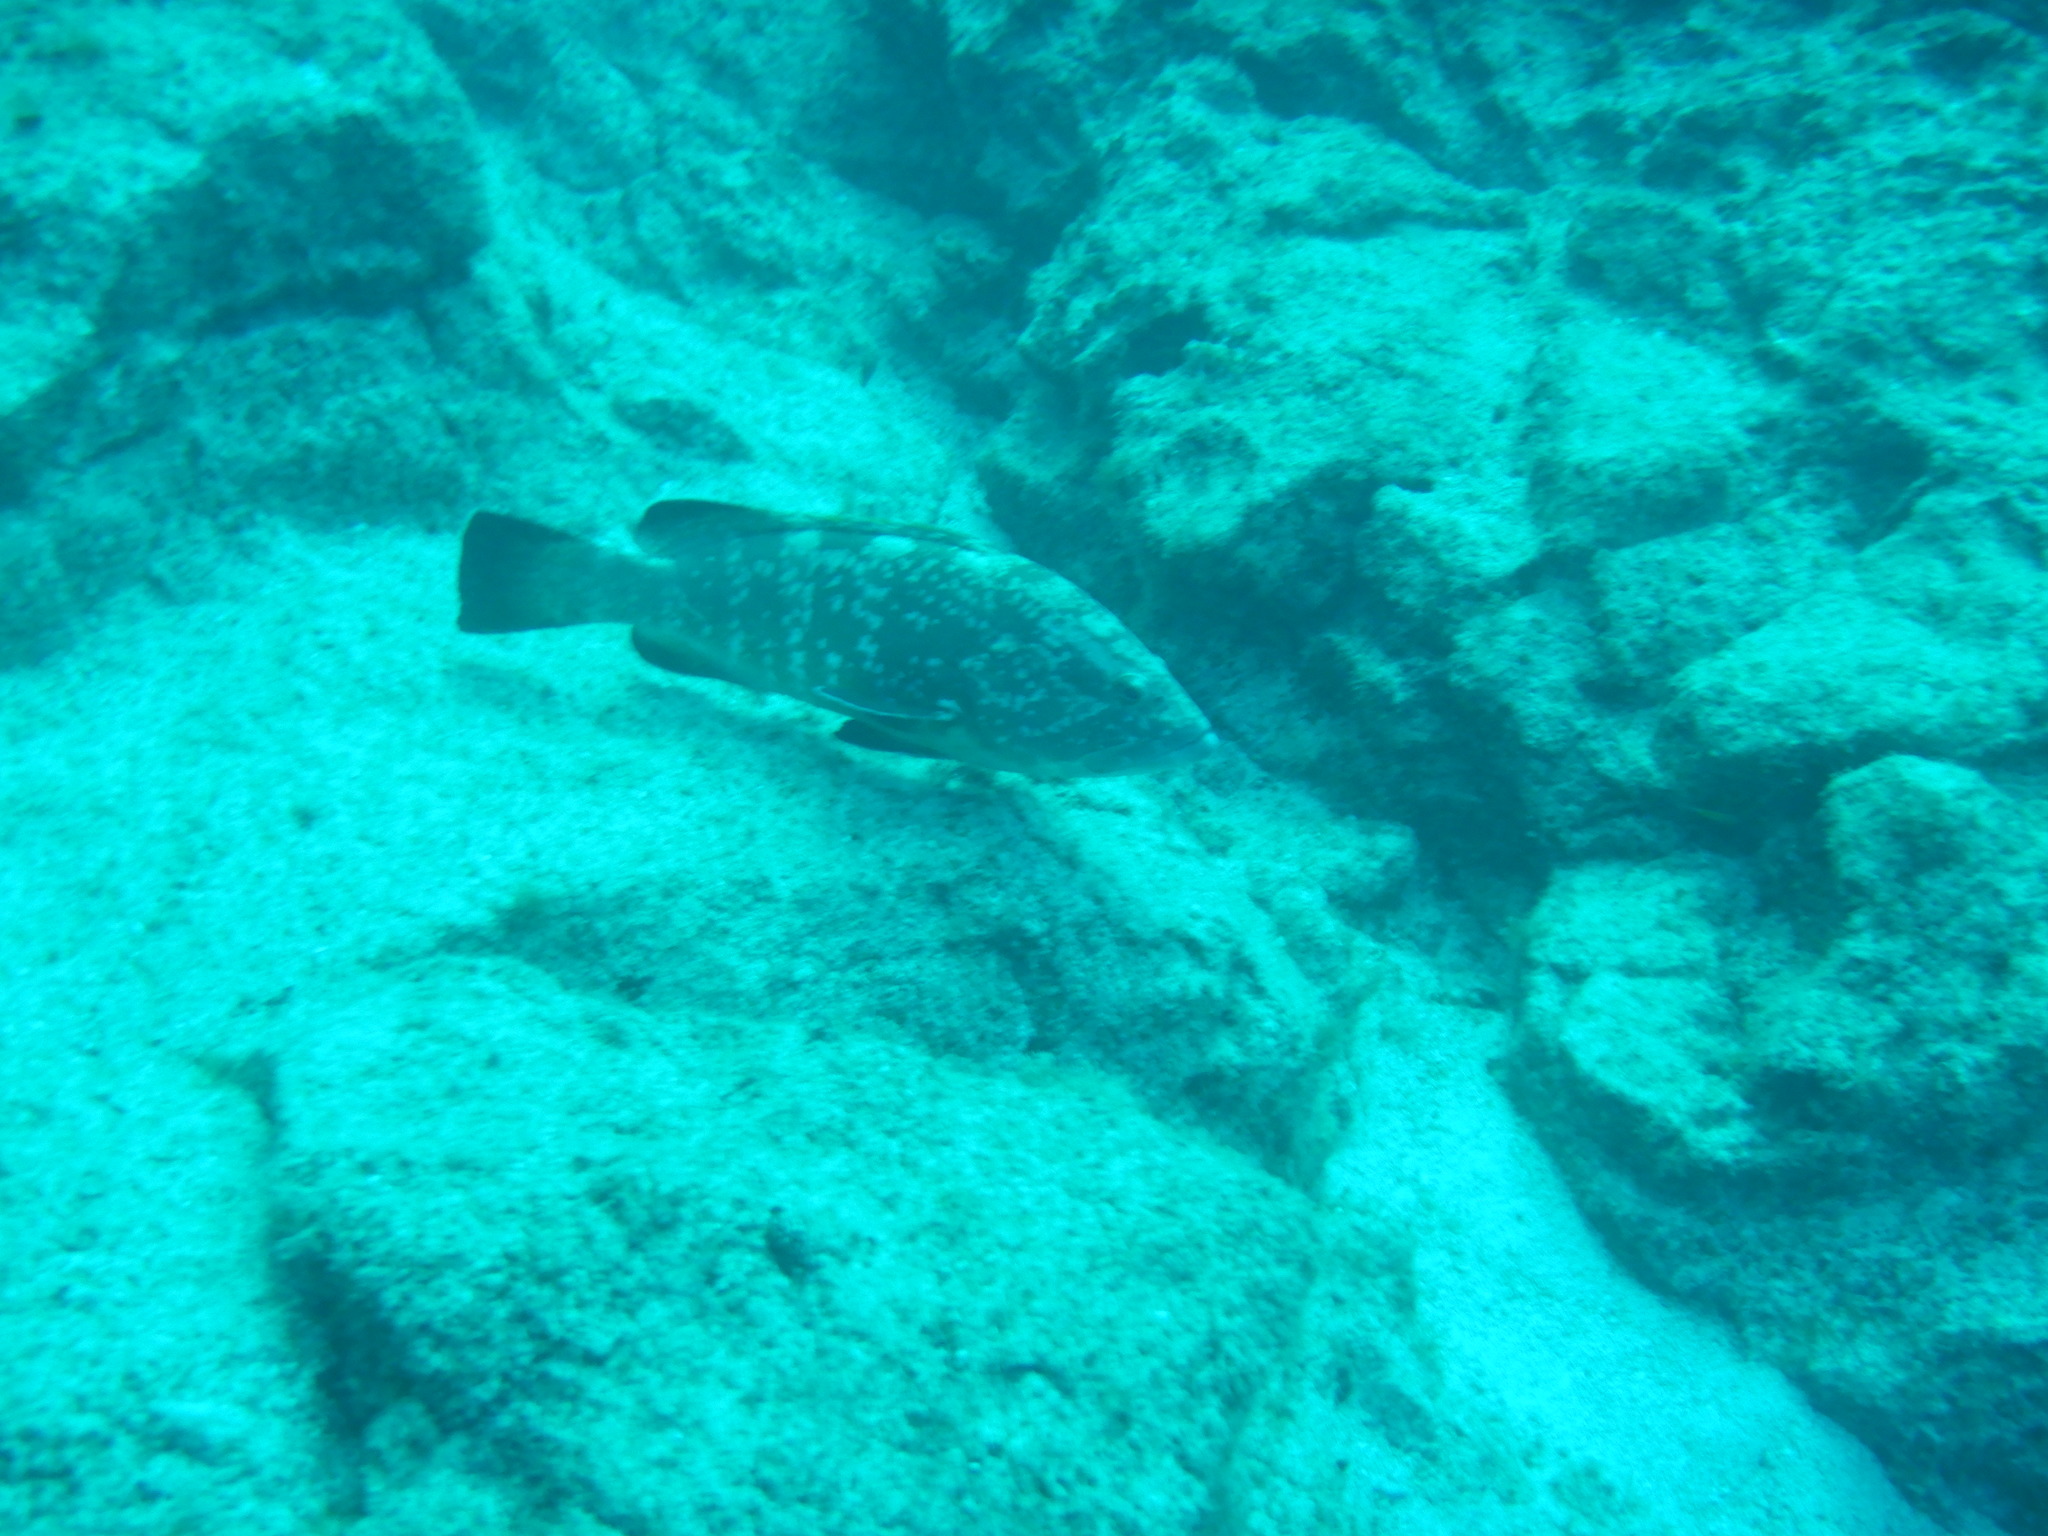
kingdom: Animalia
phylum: Chordata
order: Perciformes
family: Serranidae
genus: Epinephelus
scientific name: Epinephelus marginatus
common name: Dusky grouper
